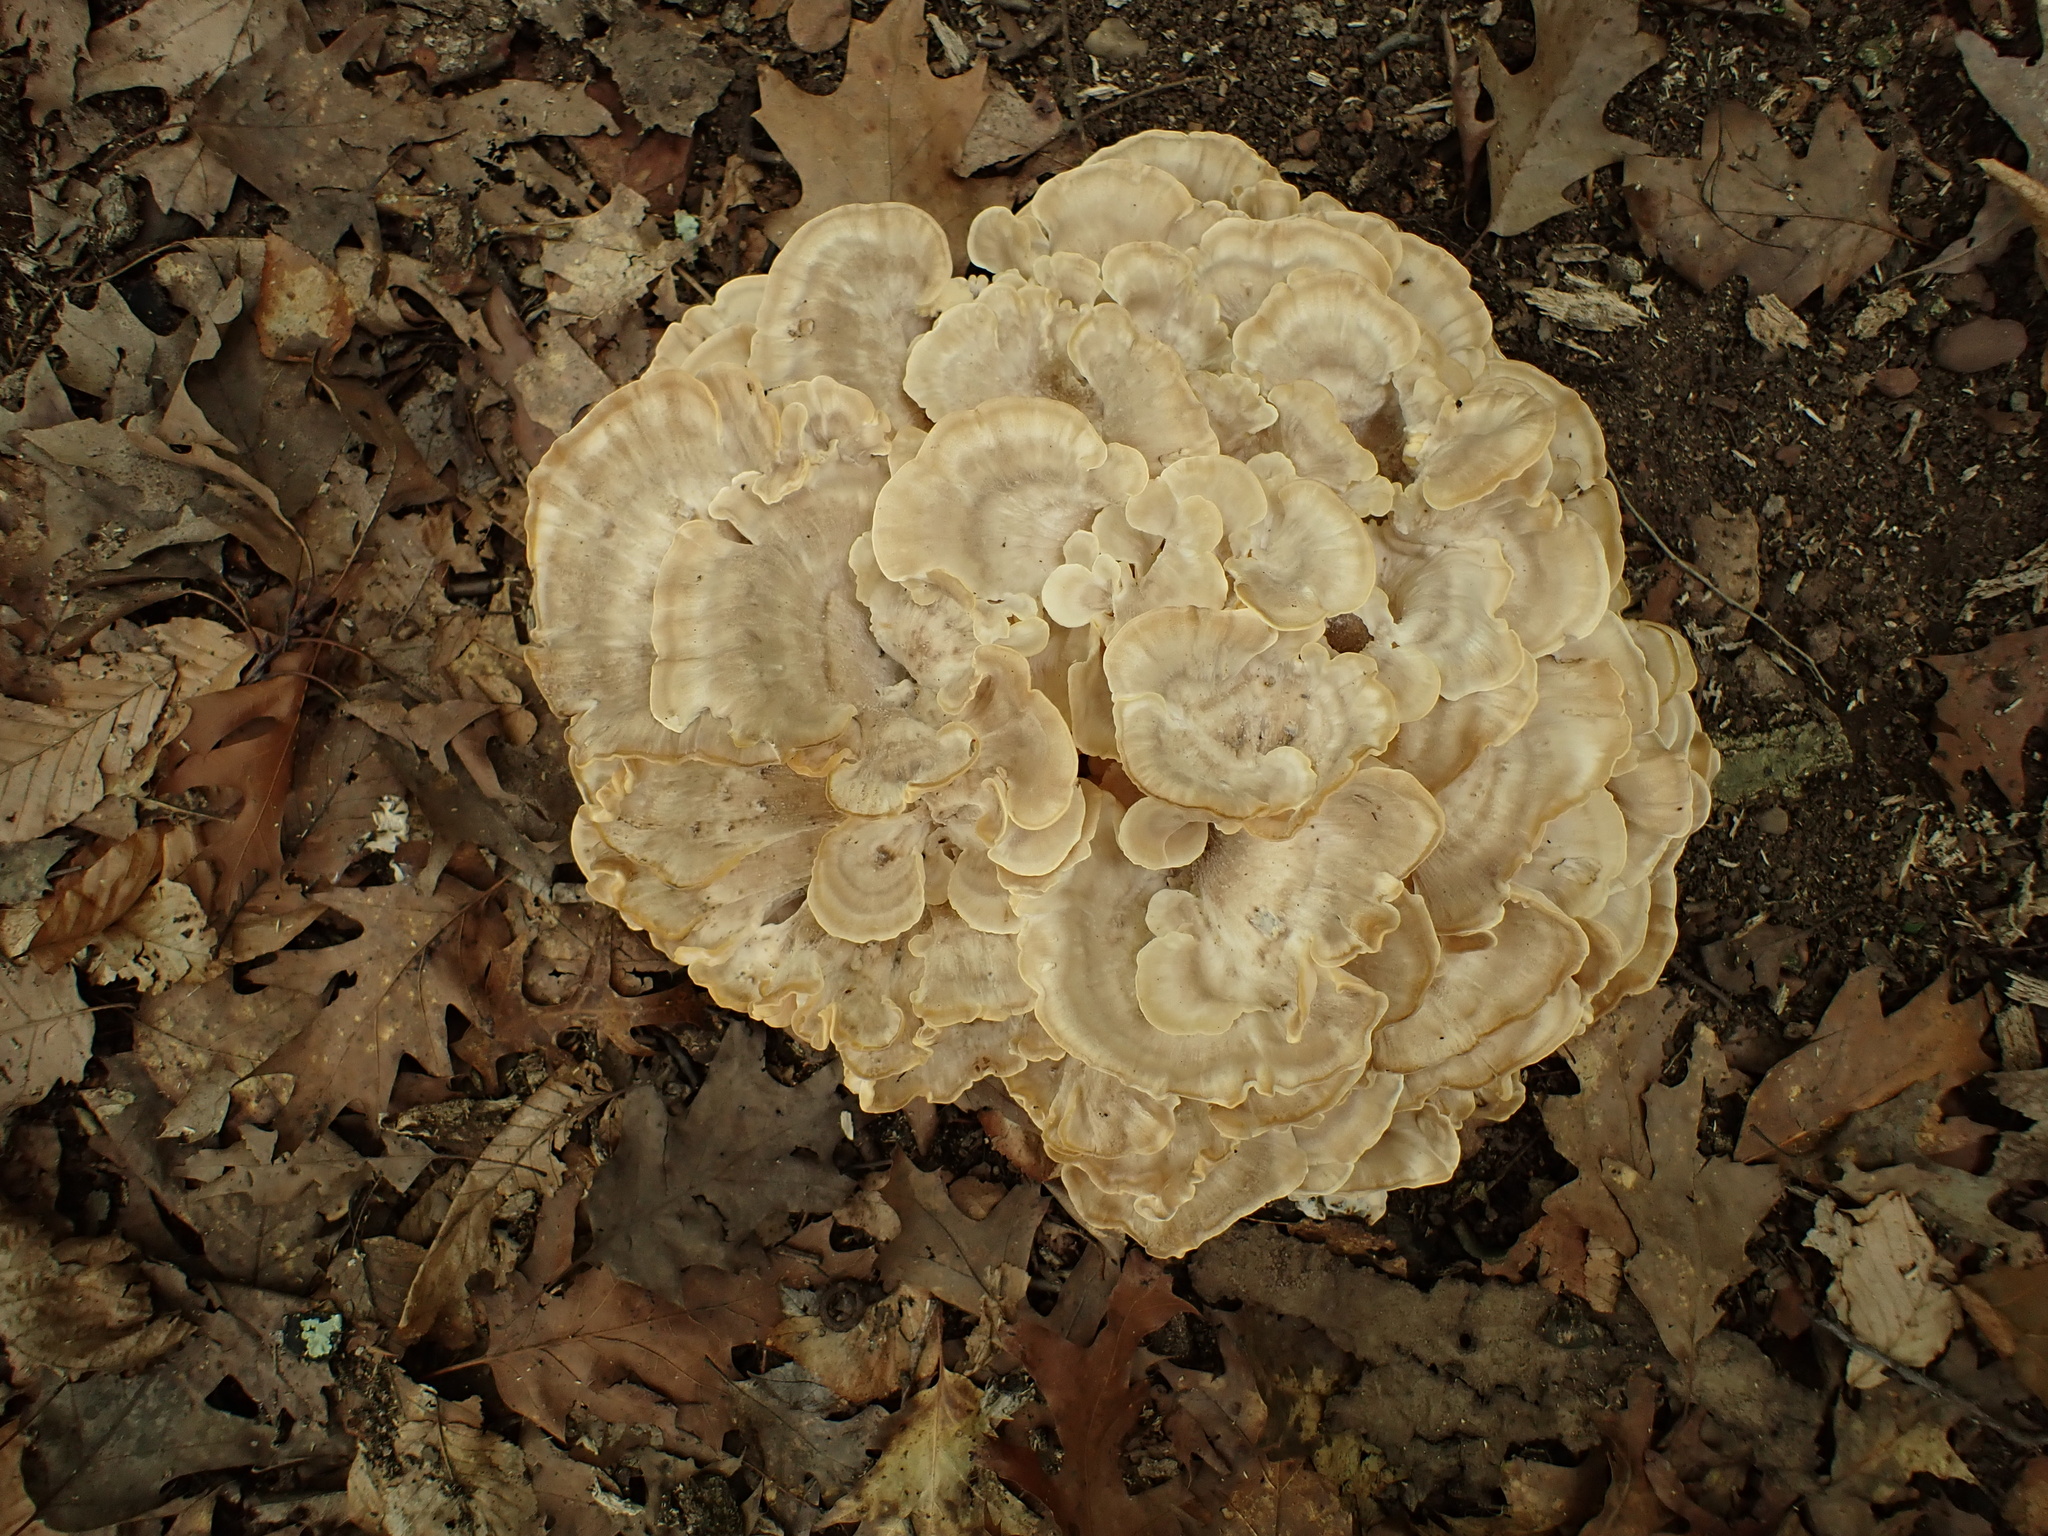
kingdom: Fungi
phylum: Basidiomycota
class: Agaricomycetes
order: Polyporales
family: Meripilaceae
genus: Meripilus
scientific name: Meripilus sumstinei
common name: Black-staining polypore
